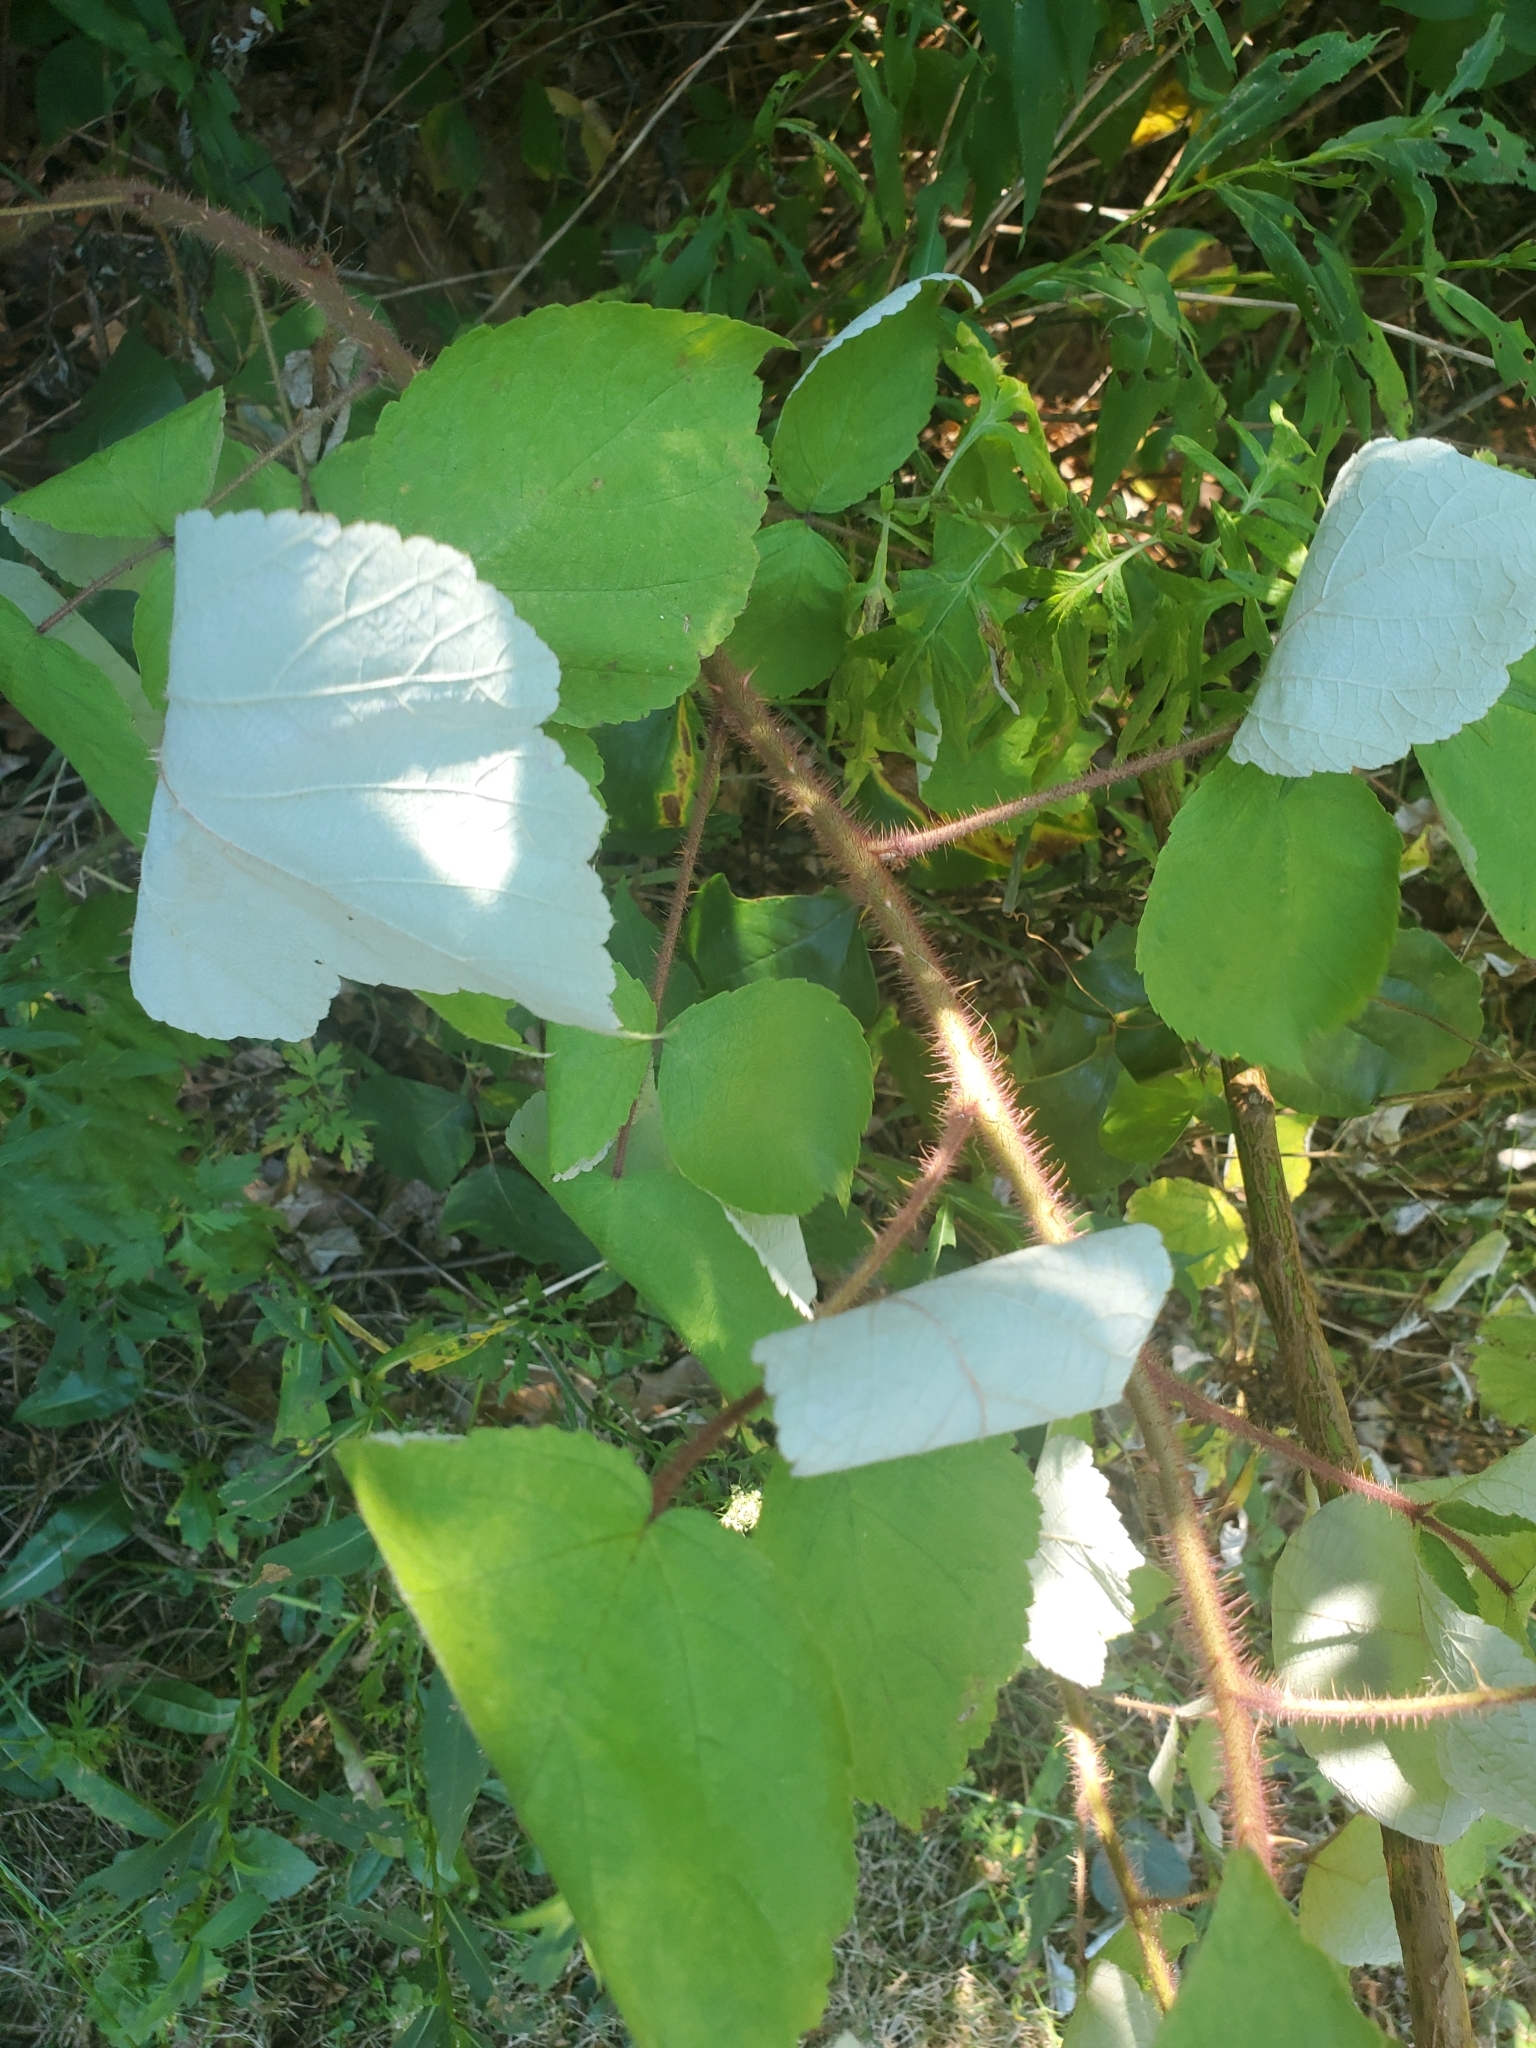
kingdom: Plantae
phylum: Tracheophyta
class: Magnoliopsida
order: Rosales
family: Rosaceae
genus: Rubus
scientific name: Rubus phoenicolasius
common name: Japanese wineberry
